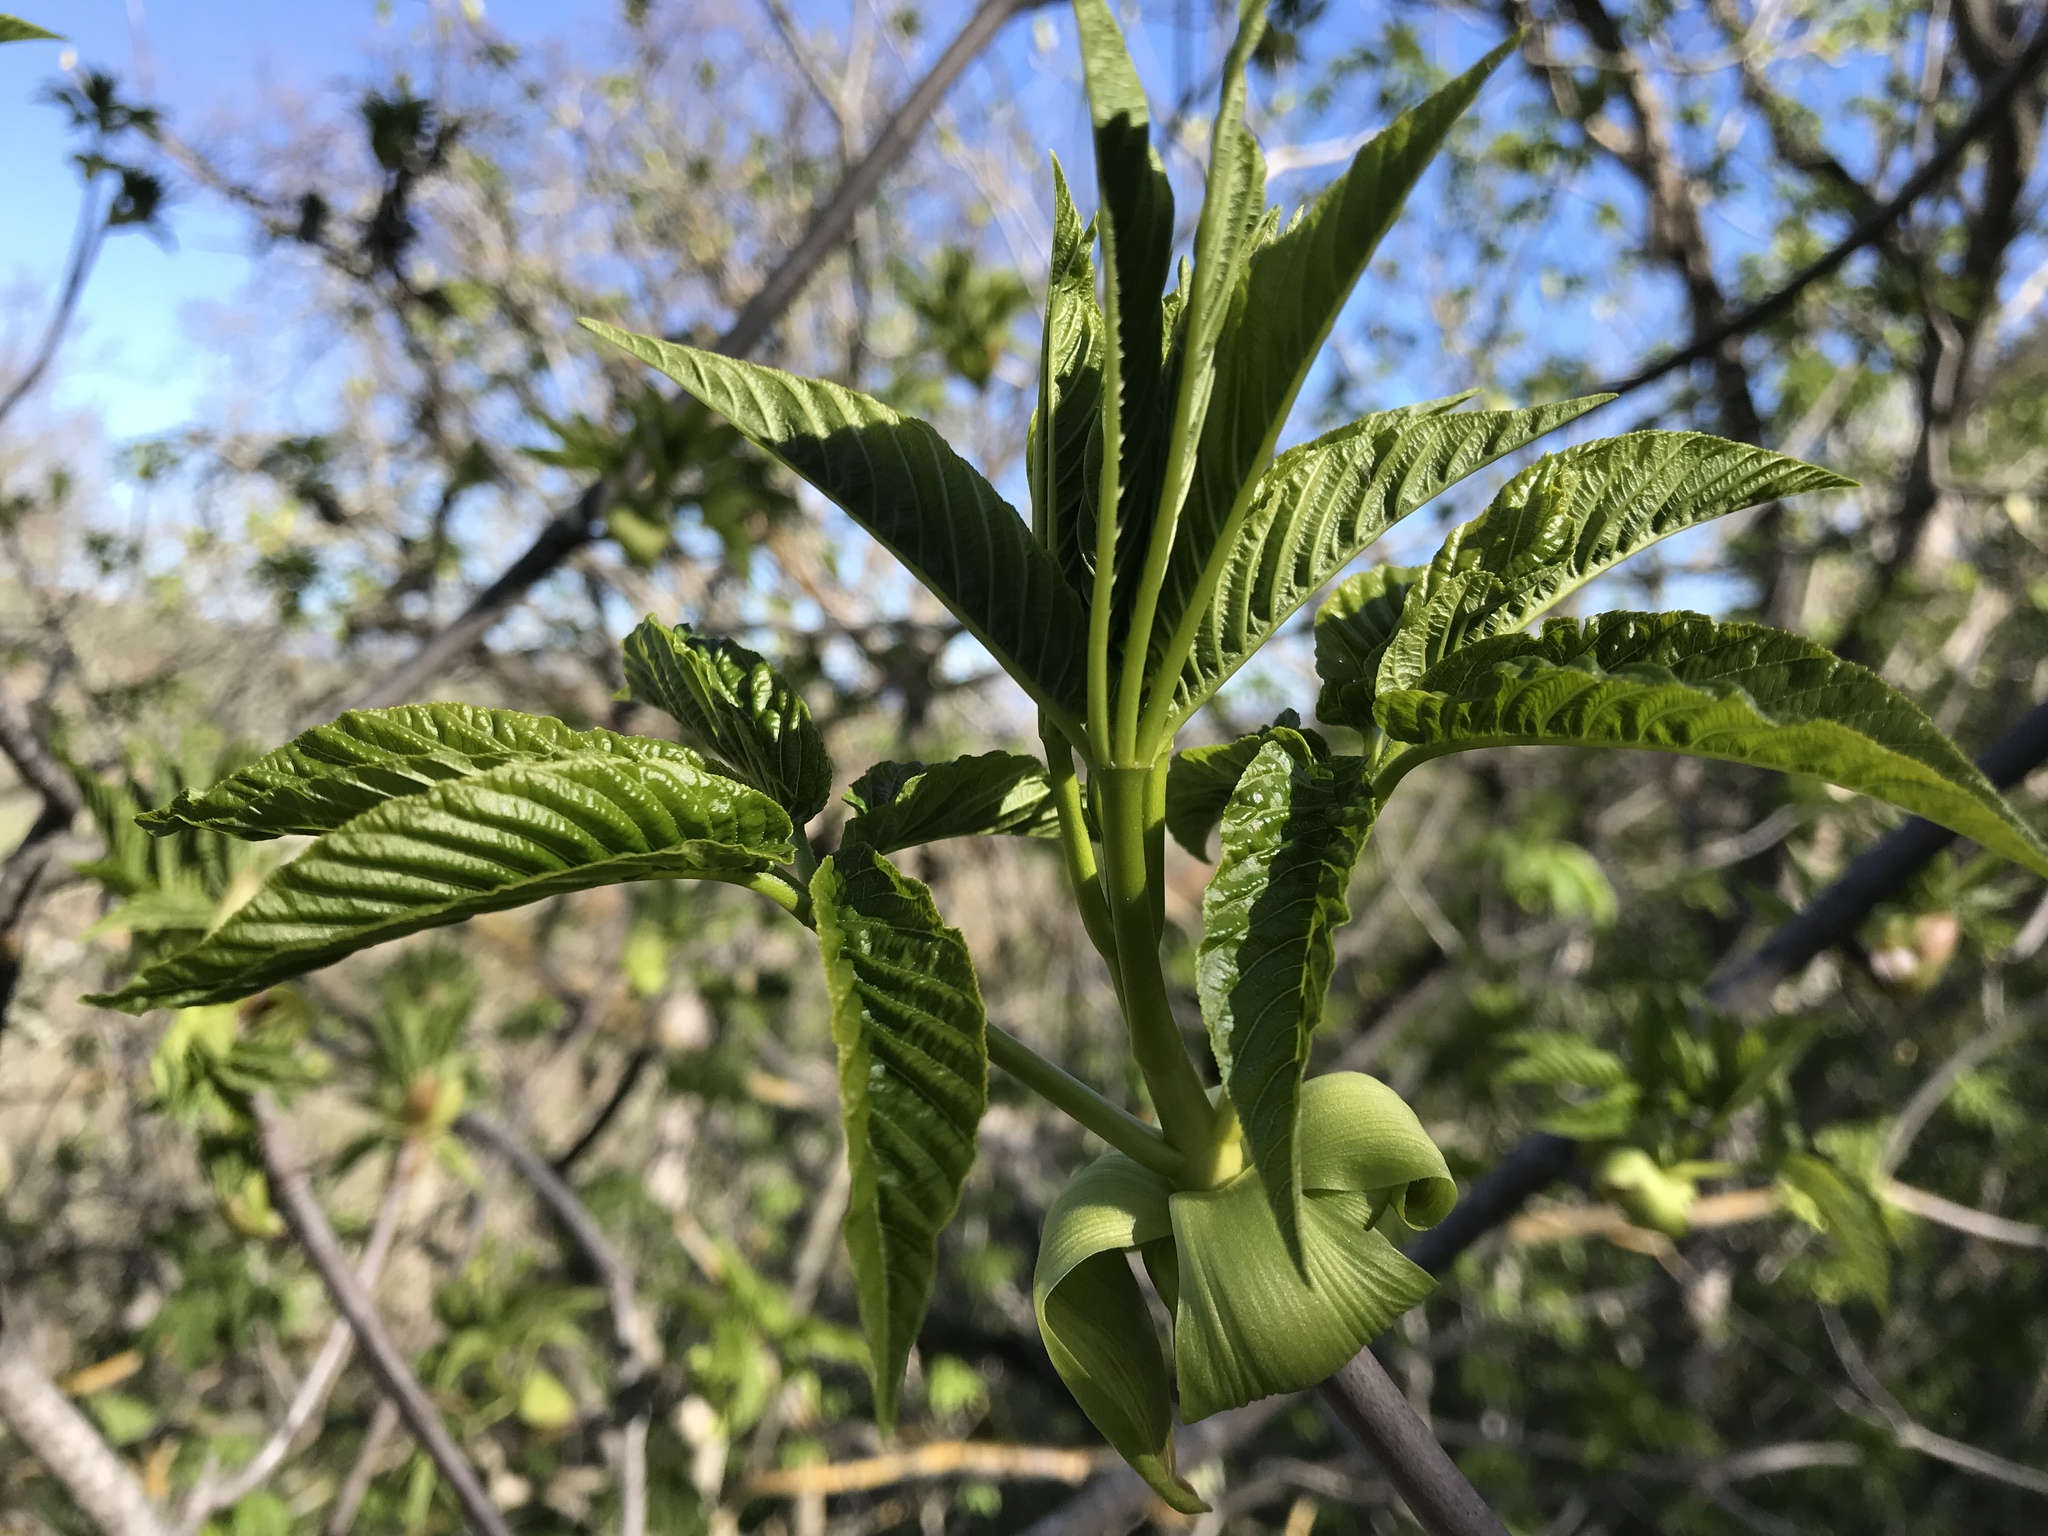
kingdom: Plantae
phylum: Tracheophyta
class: Magnoliopsida
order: Sapindales
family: Sapindaceae
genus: Aesculus
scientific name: Aesculus californica
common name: California buckeye
